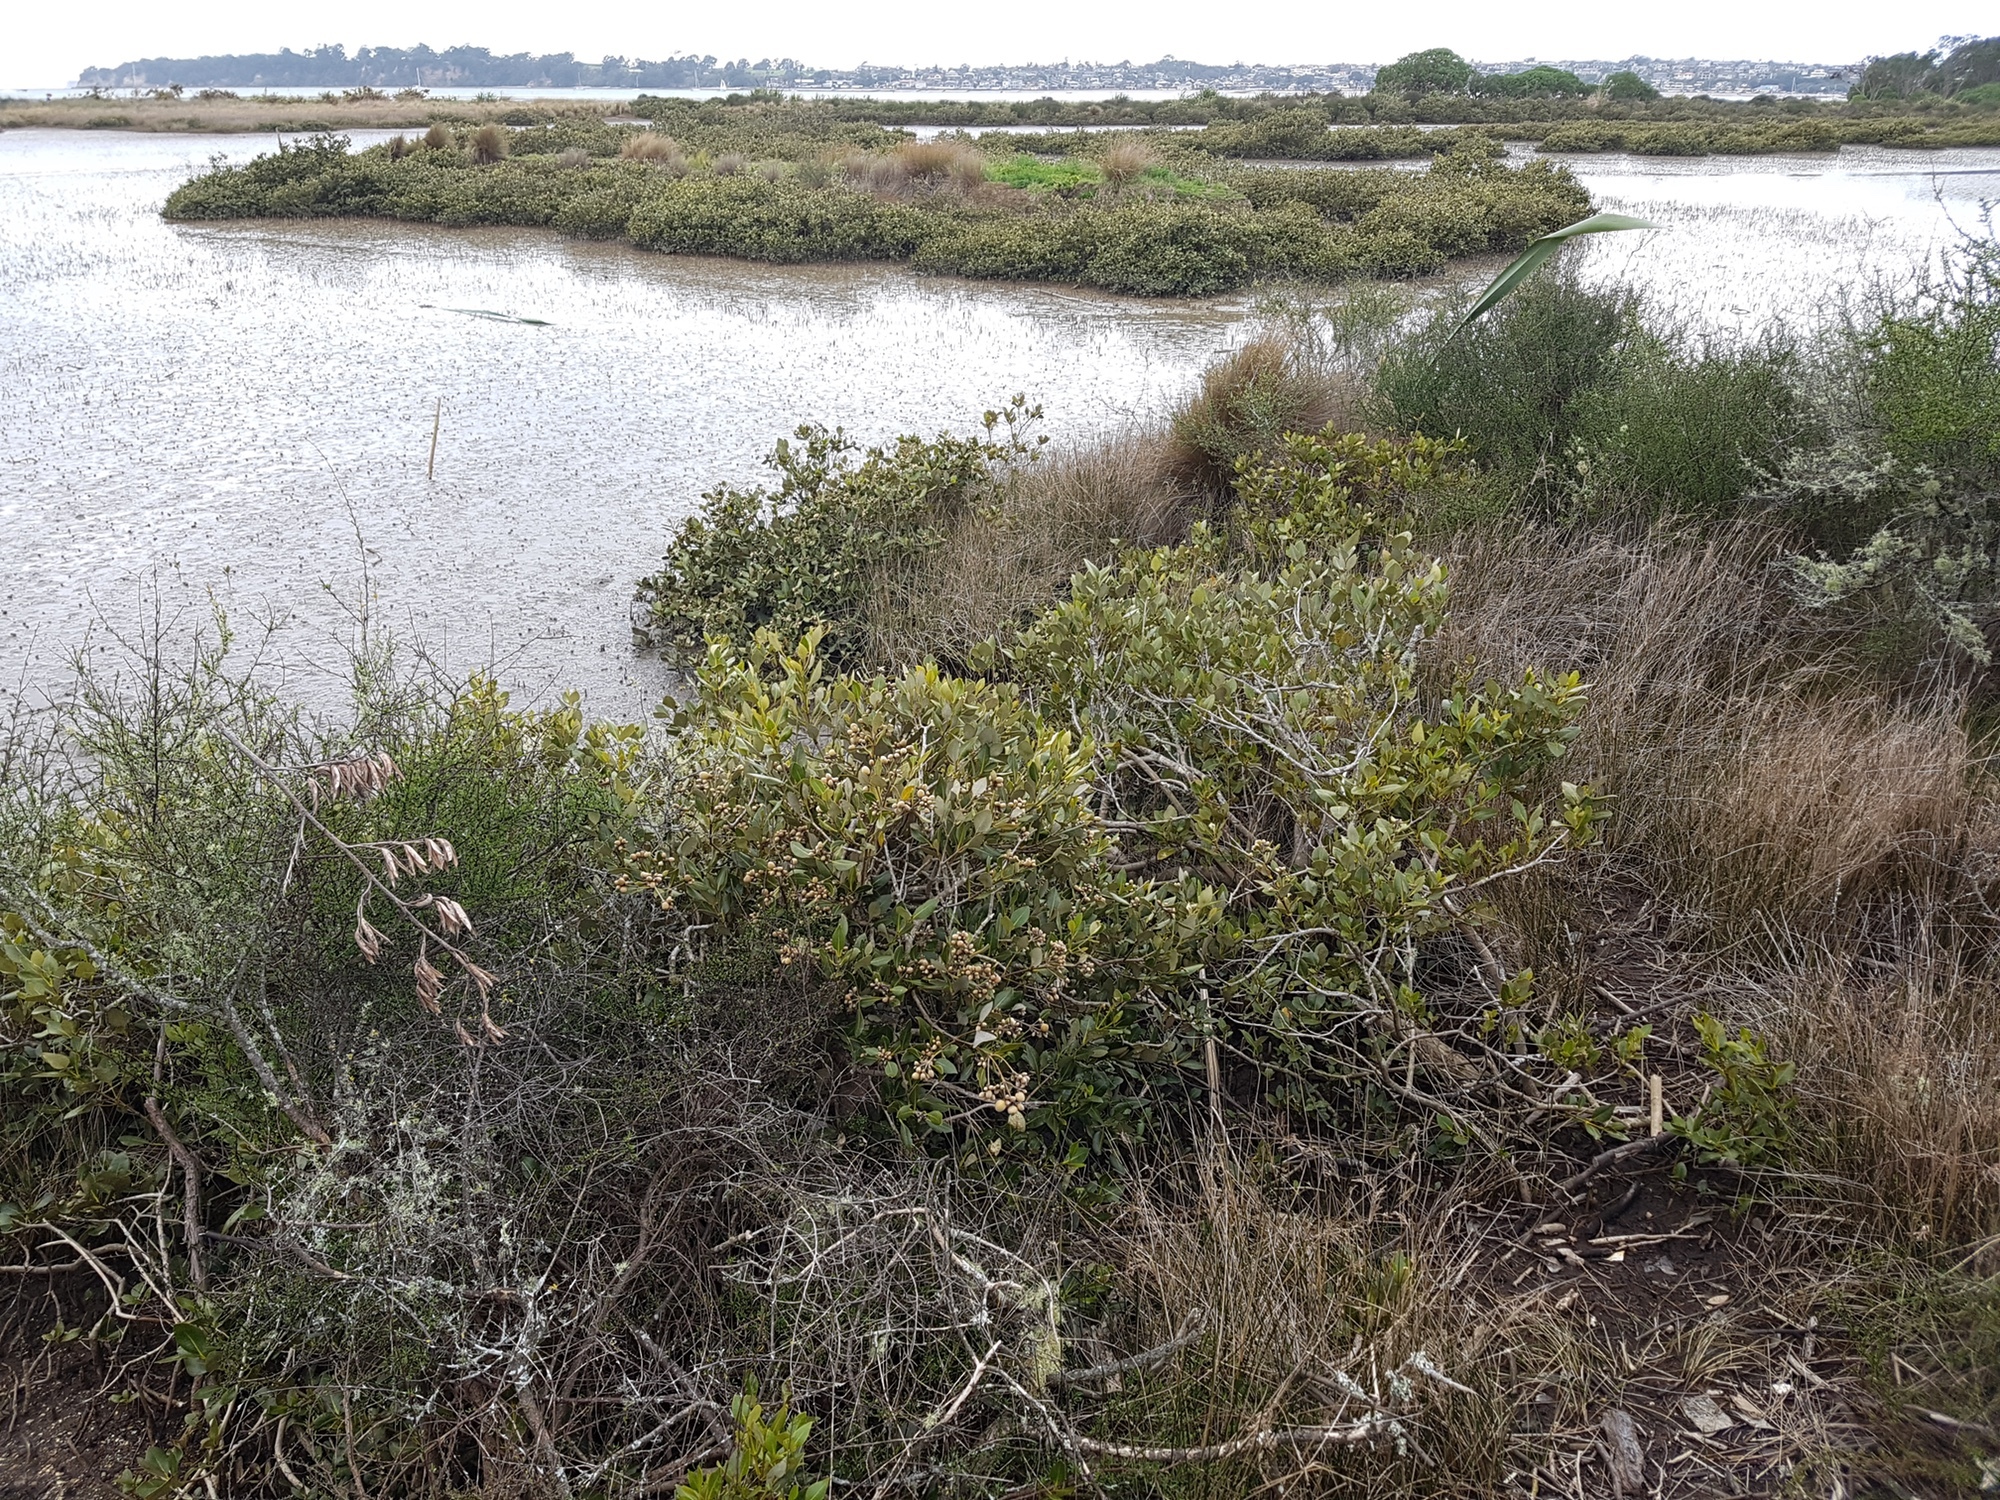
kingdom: Plantae
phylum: Tracheophyta
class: Magnoliopsida
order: Lamiales
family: Acanthaceae
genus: Avicennia
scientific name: Avicennia marina
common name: Gray mangrove
